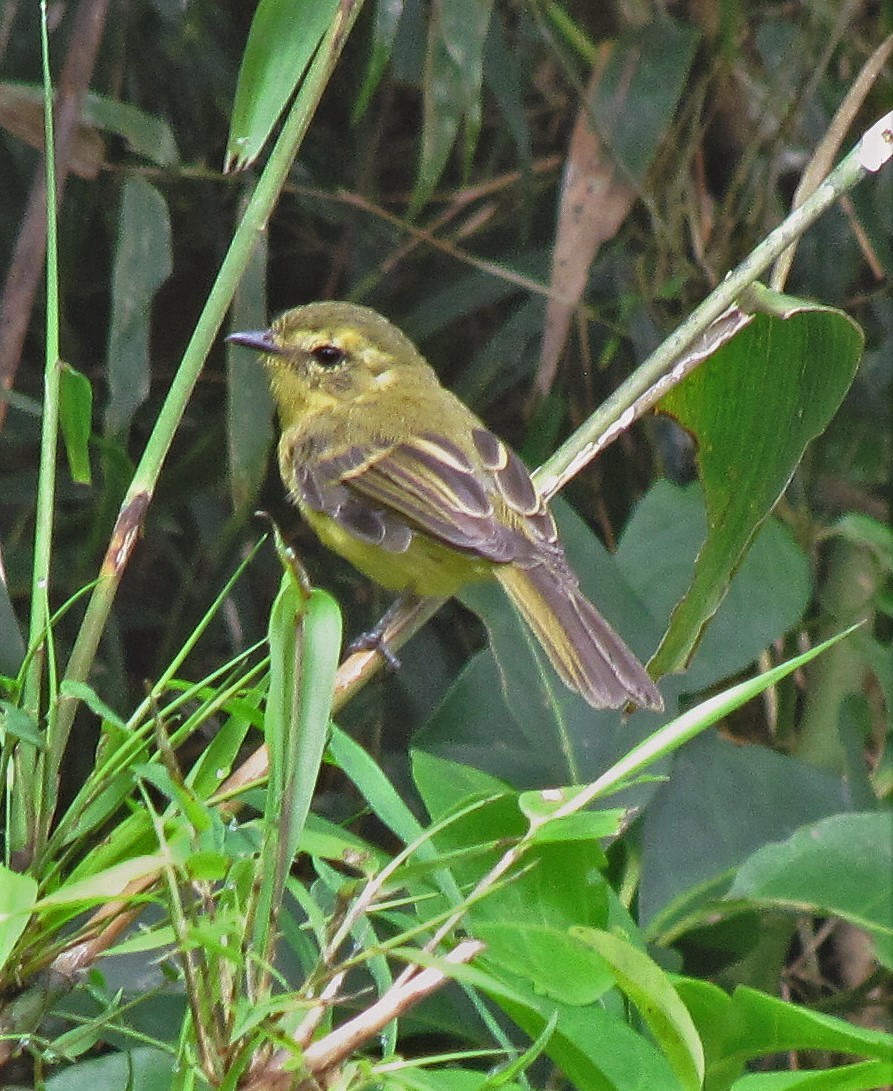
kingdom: Animalia
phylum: Chordata
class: Aves
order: Passeriformes
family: Tyrannidae
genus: Capsiempis
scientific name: Capsiempis flaveola
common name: Yellow tyrannulet
